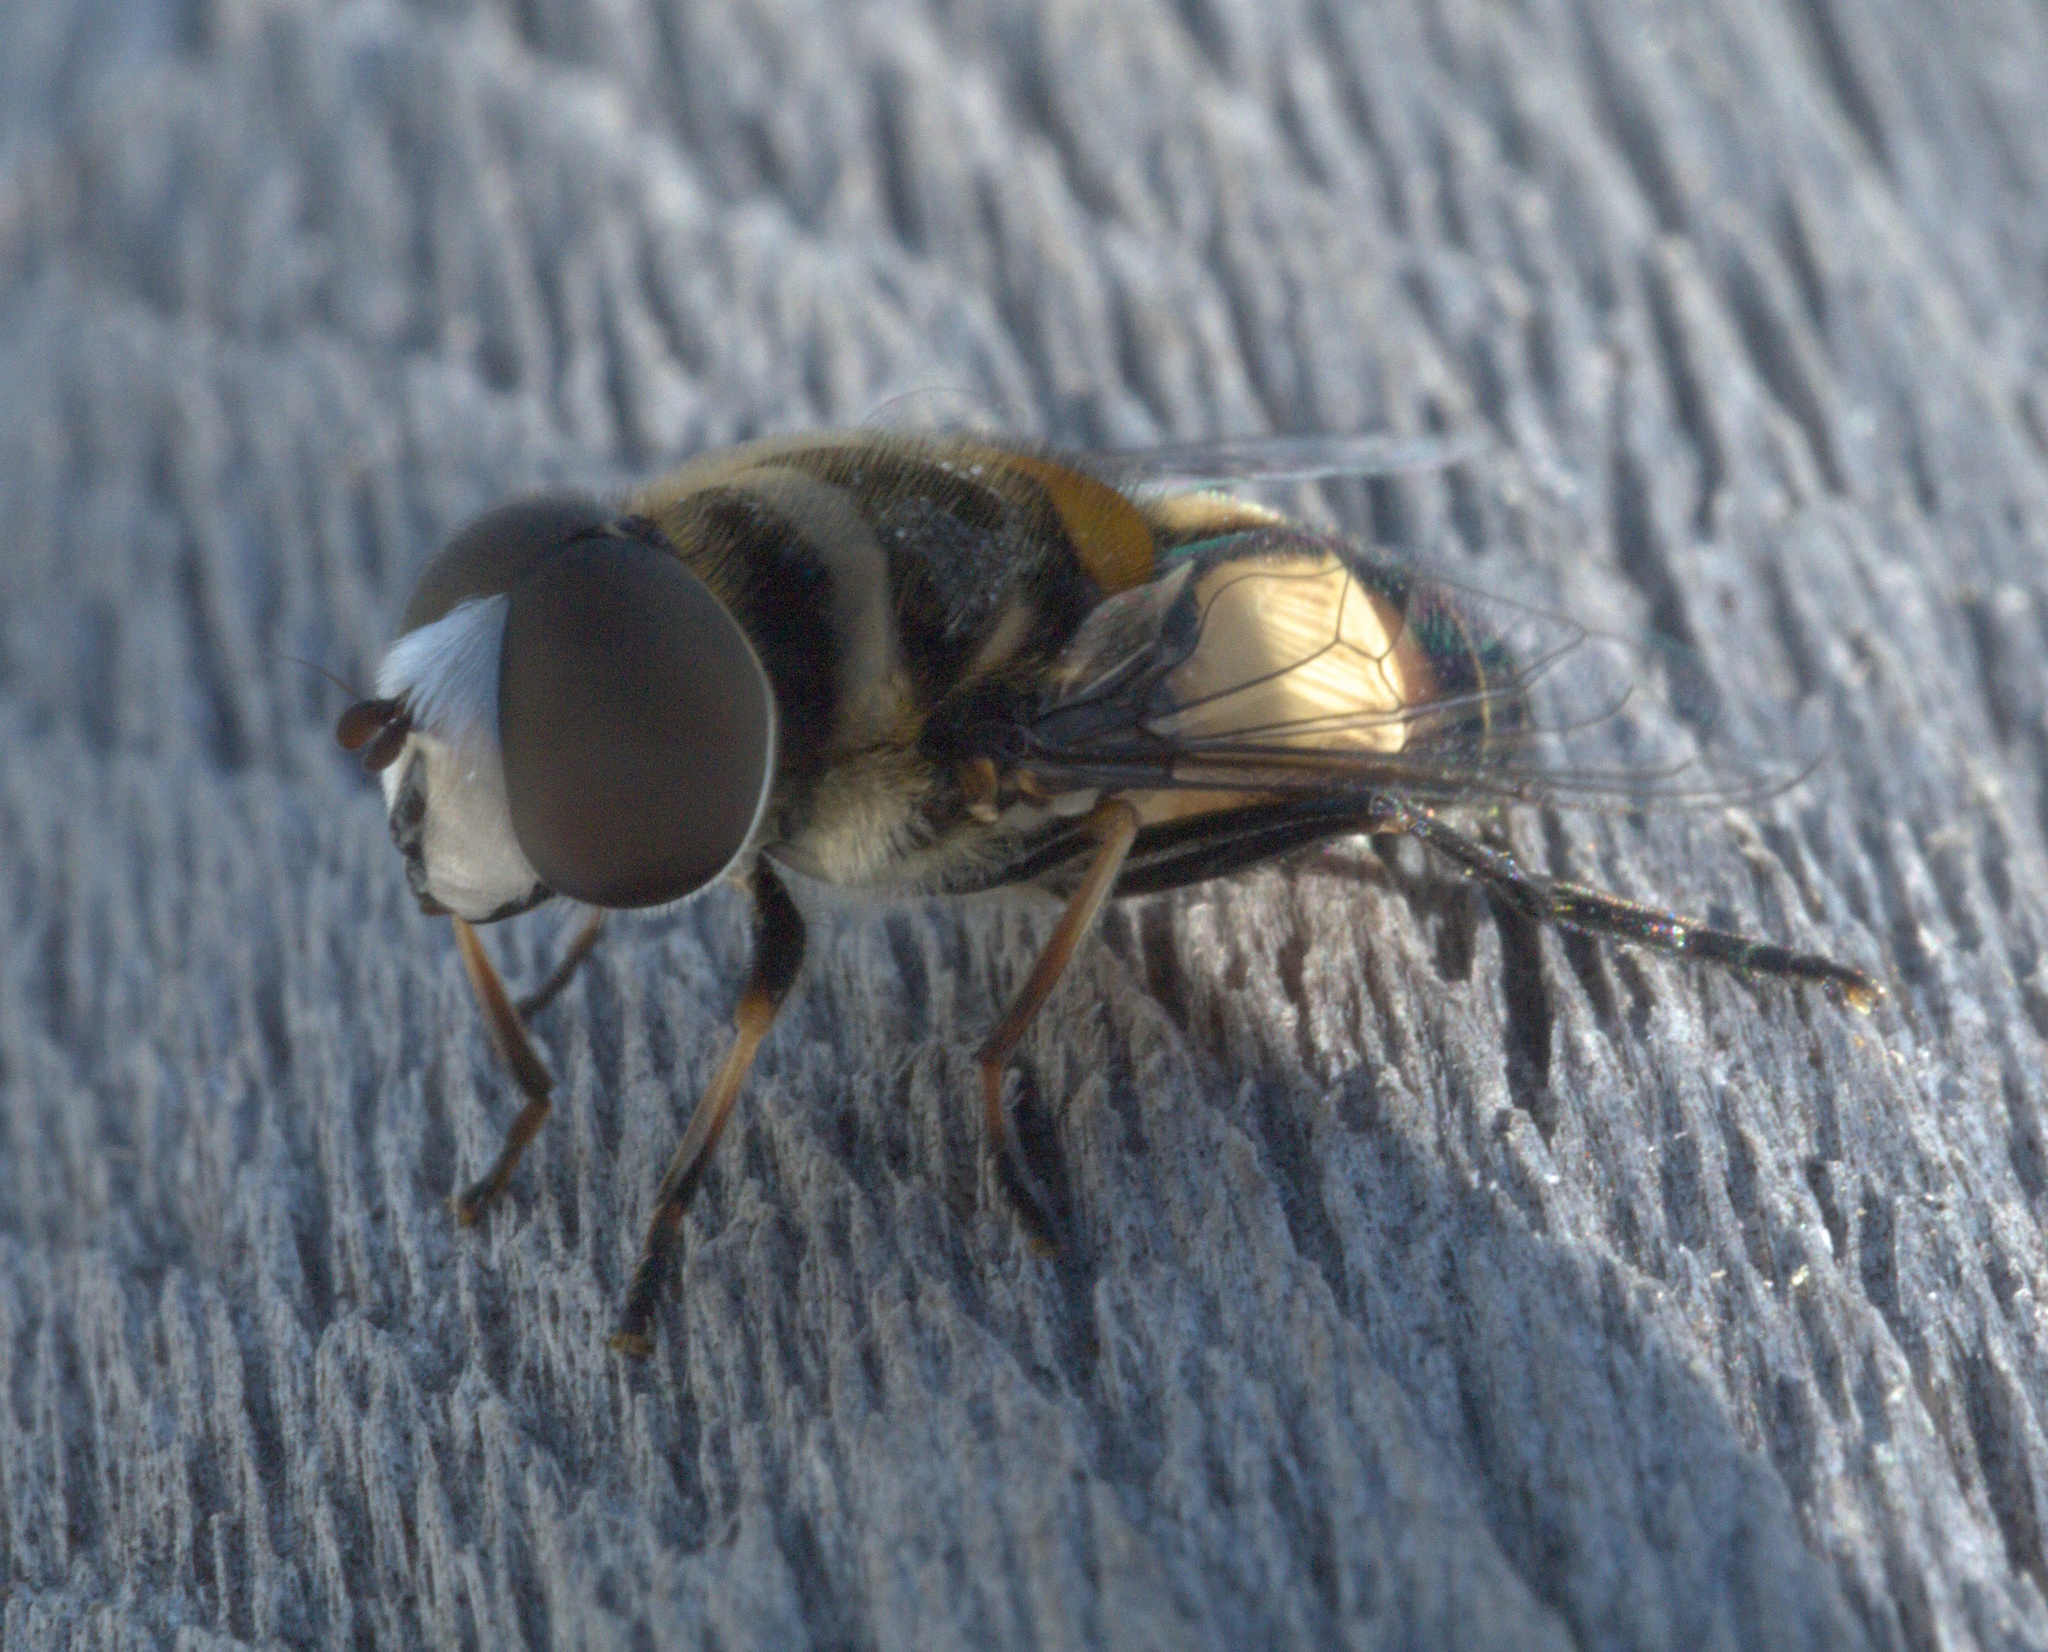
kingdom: Animalia
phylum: Arthropoda
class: Insecta
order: Diptera
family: Syrphidae
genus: Palpada
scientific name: Palpada albifrons
